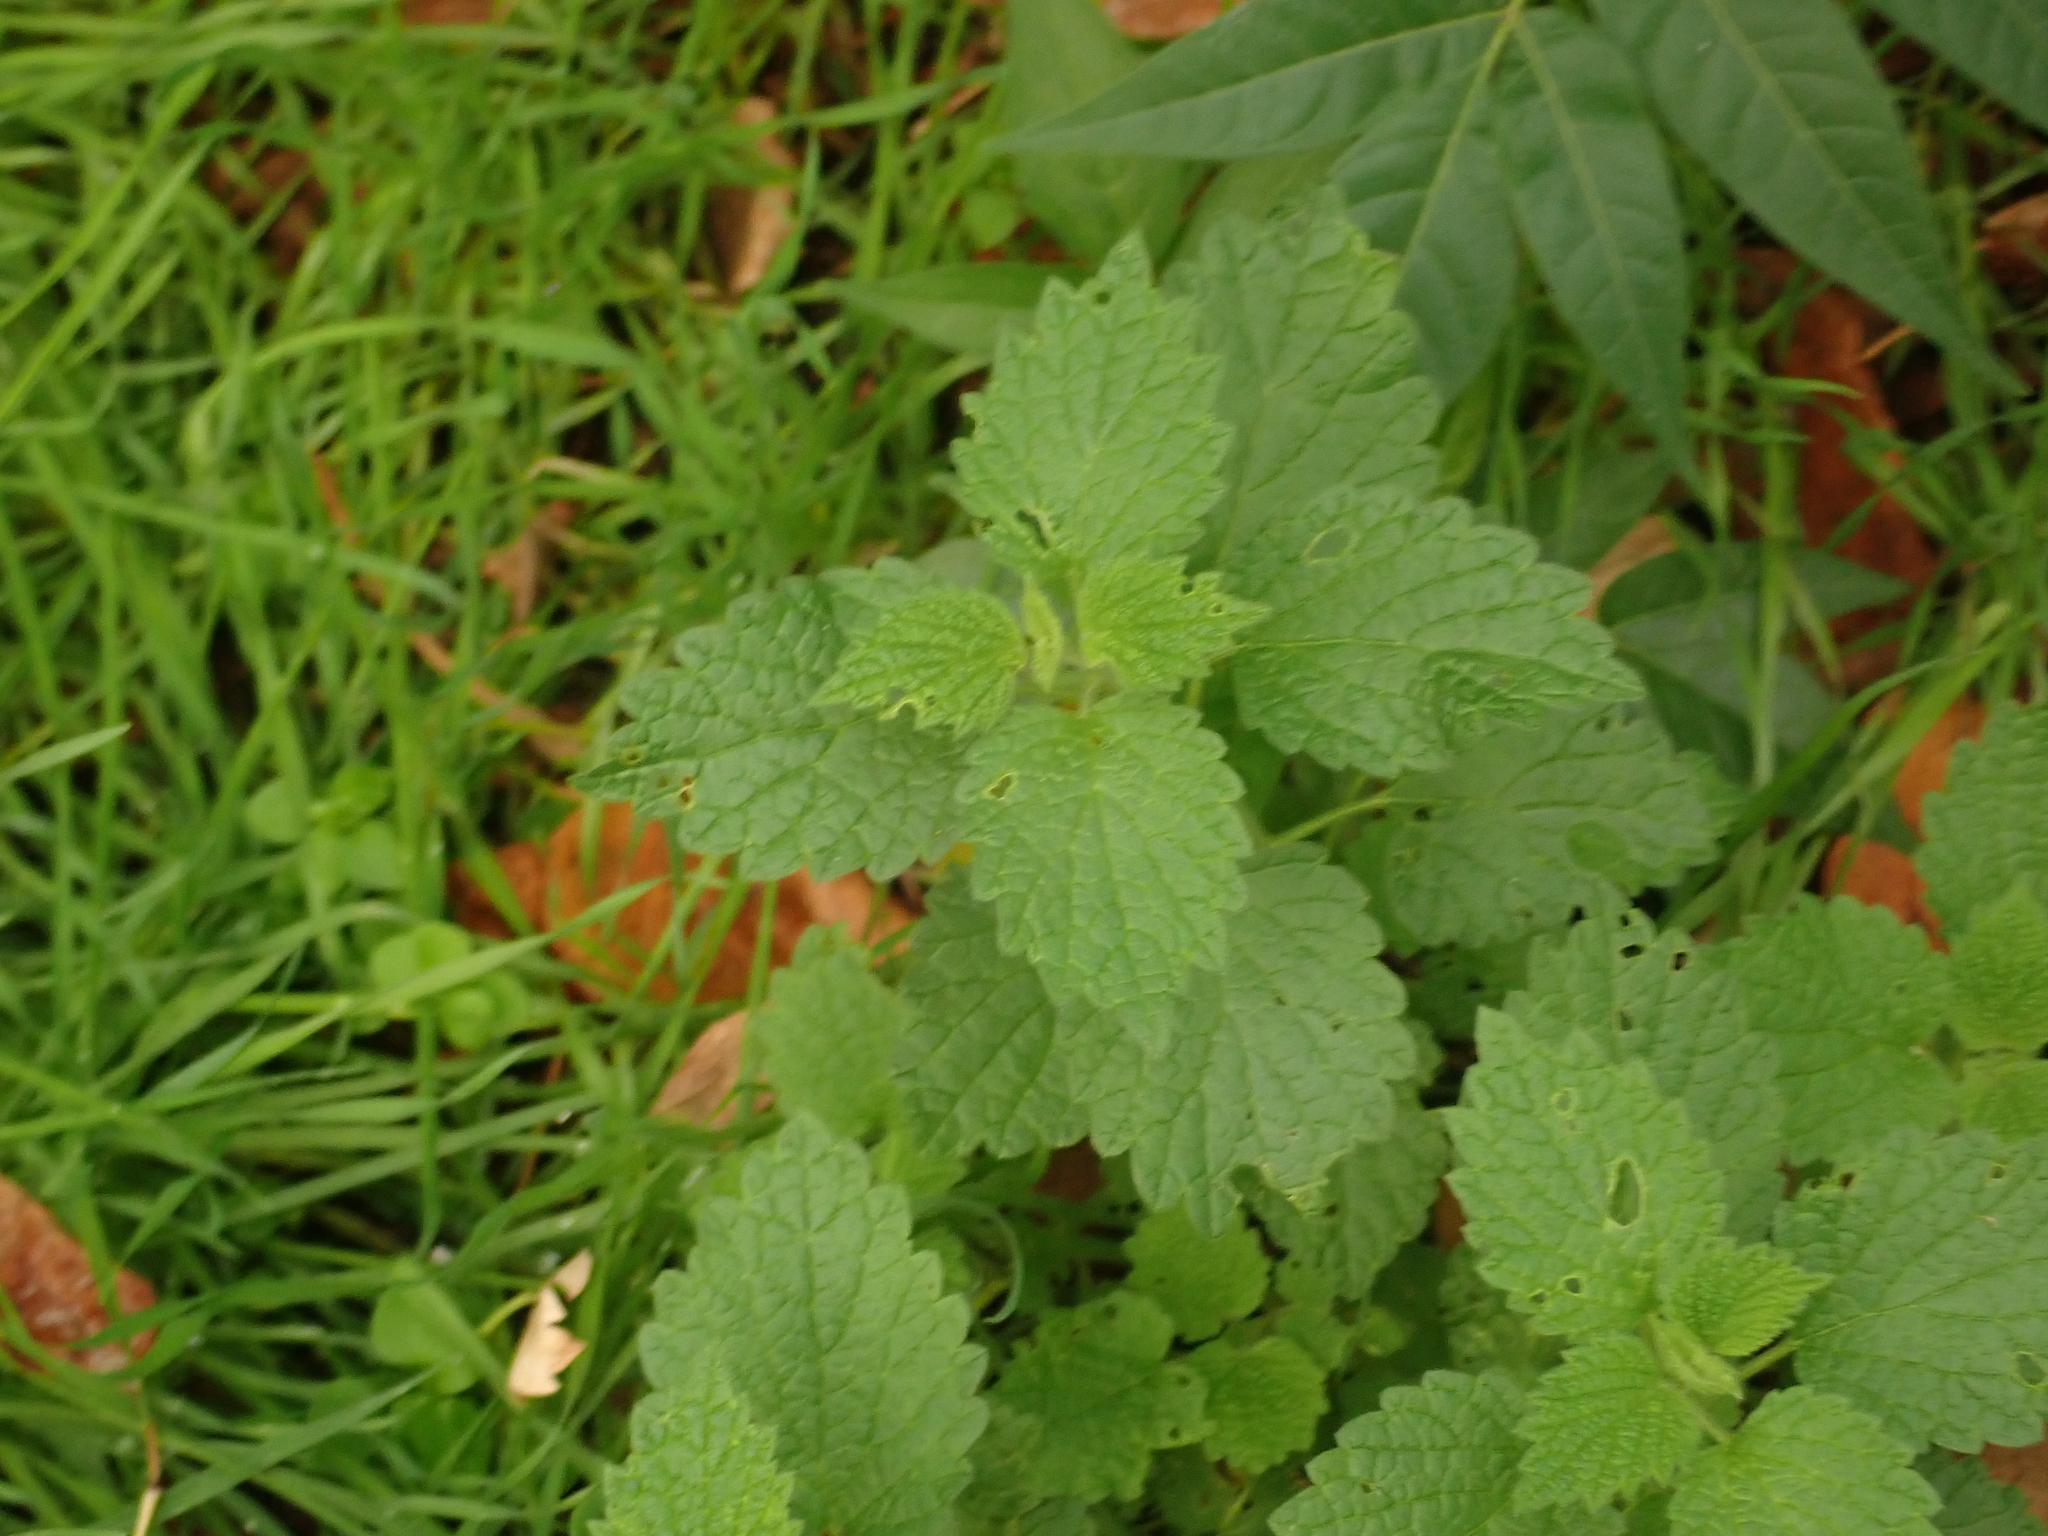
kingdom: Plantae
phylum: Tracheophyta
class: Magnoliopsida
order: Lamiales
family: Lamiaceae
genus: Ballota
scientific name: Ballota nigra
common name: Black horehound
